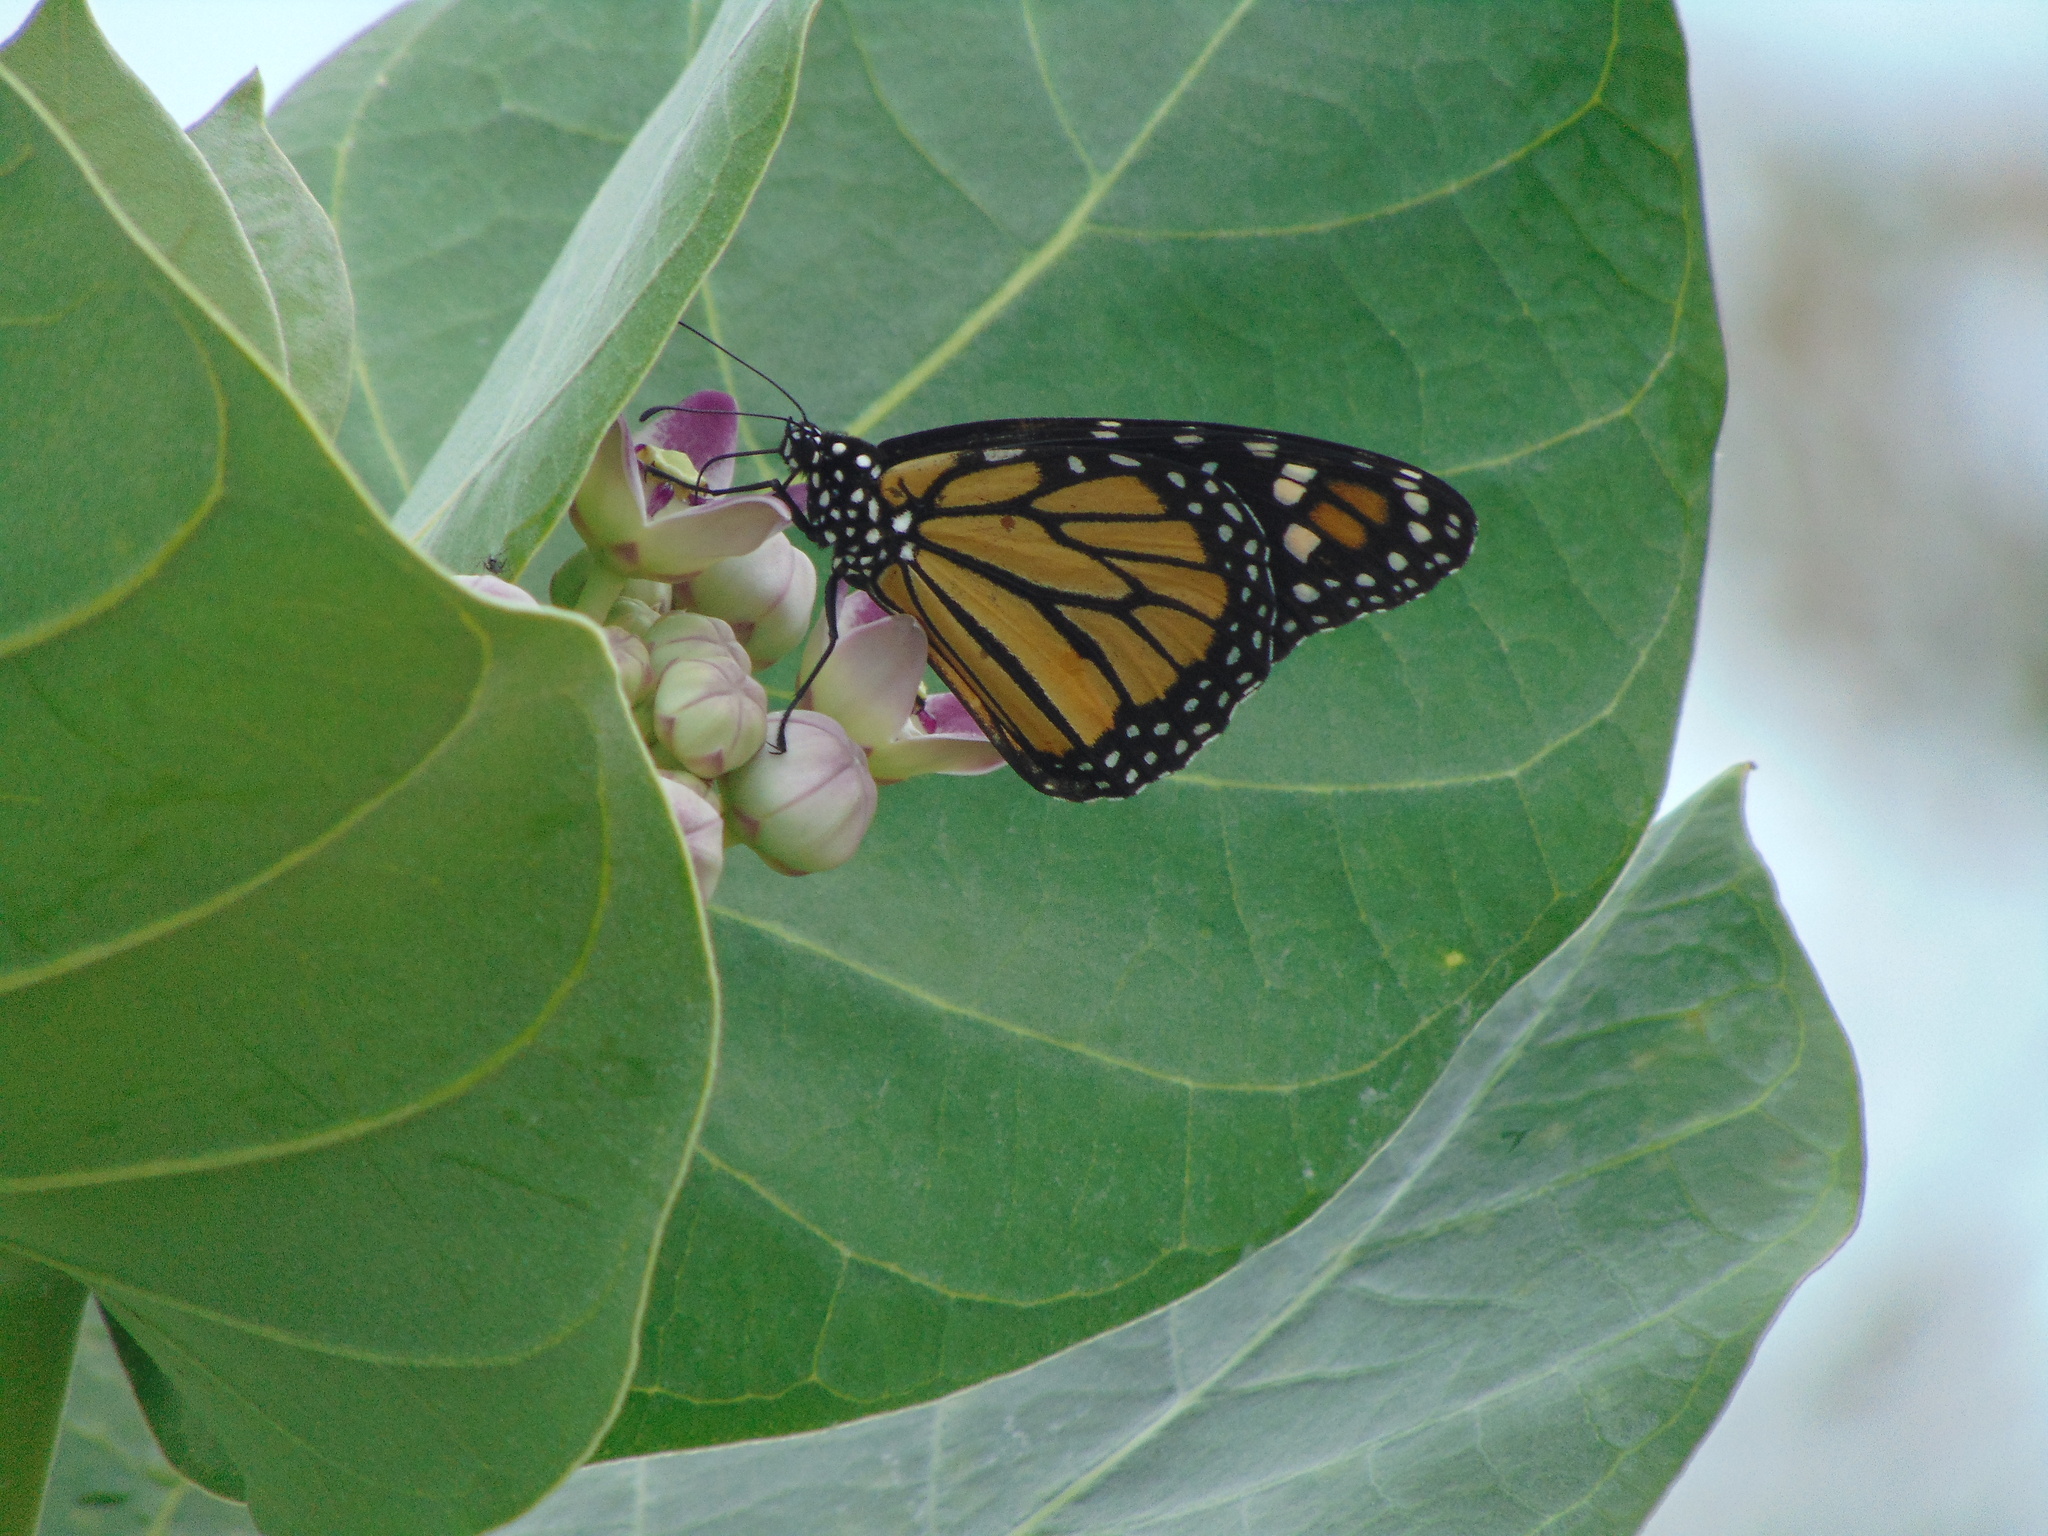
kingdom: Animalia
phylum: Arthropoda
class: Insecta
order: Lepidoptera
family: Nymphalidae
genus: Danaus
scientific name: Danaus plexippus
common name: Monarch
